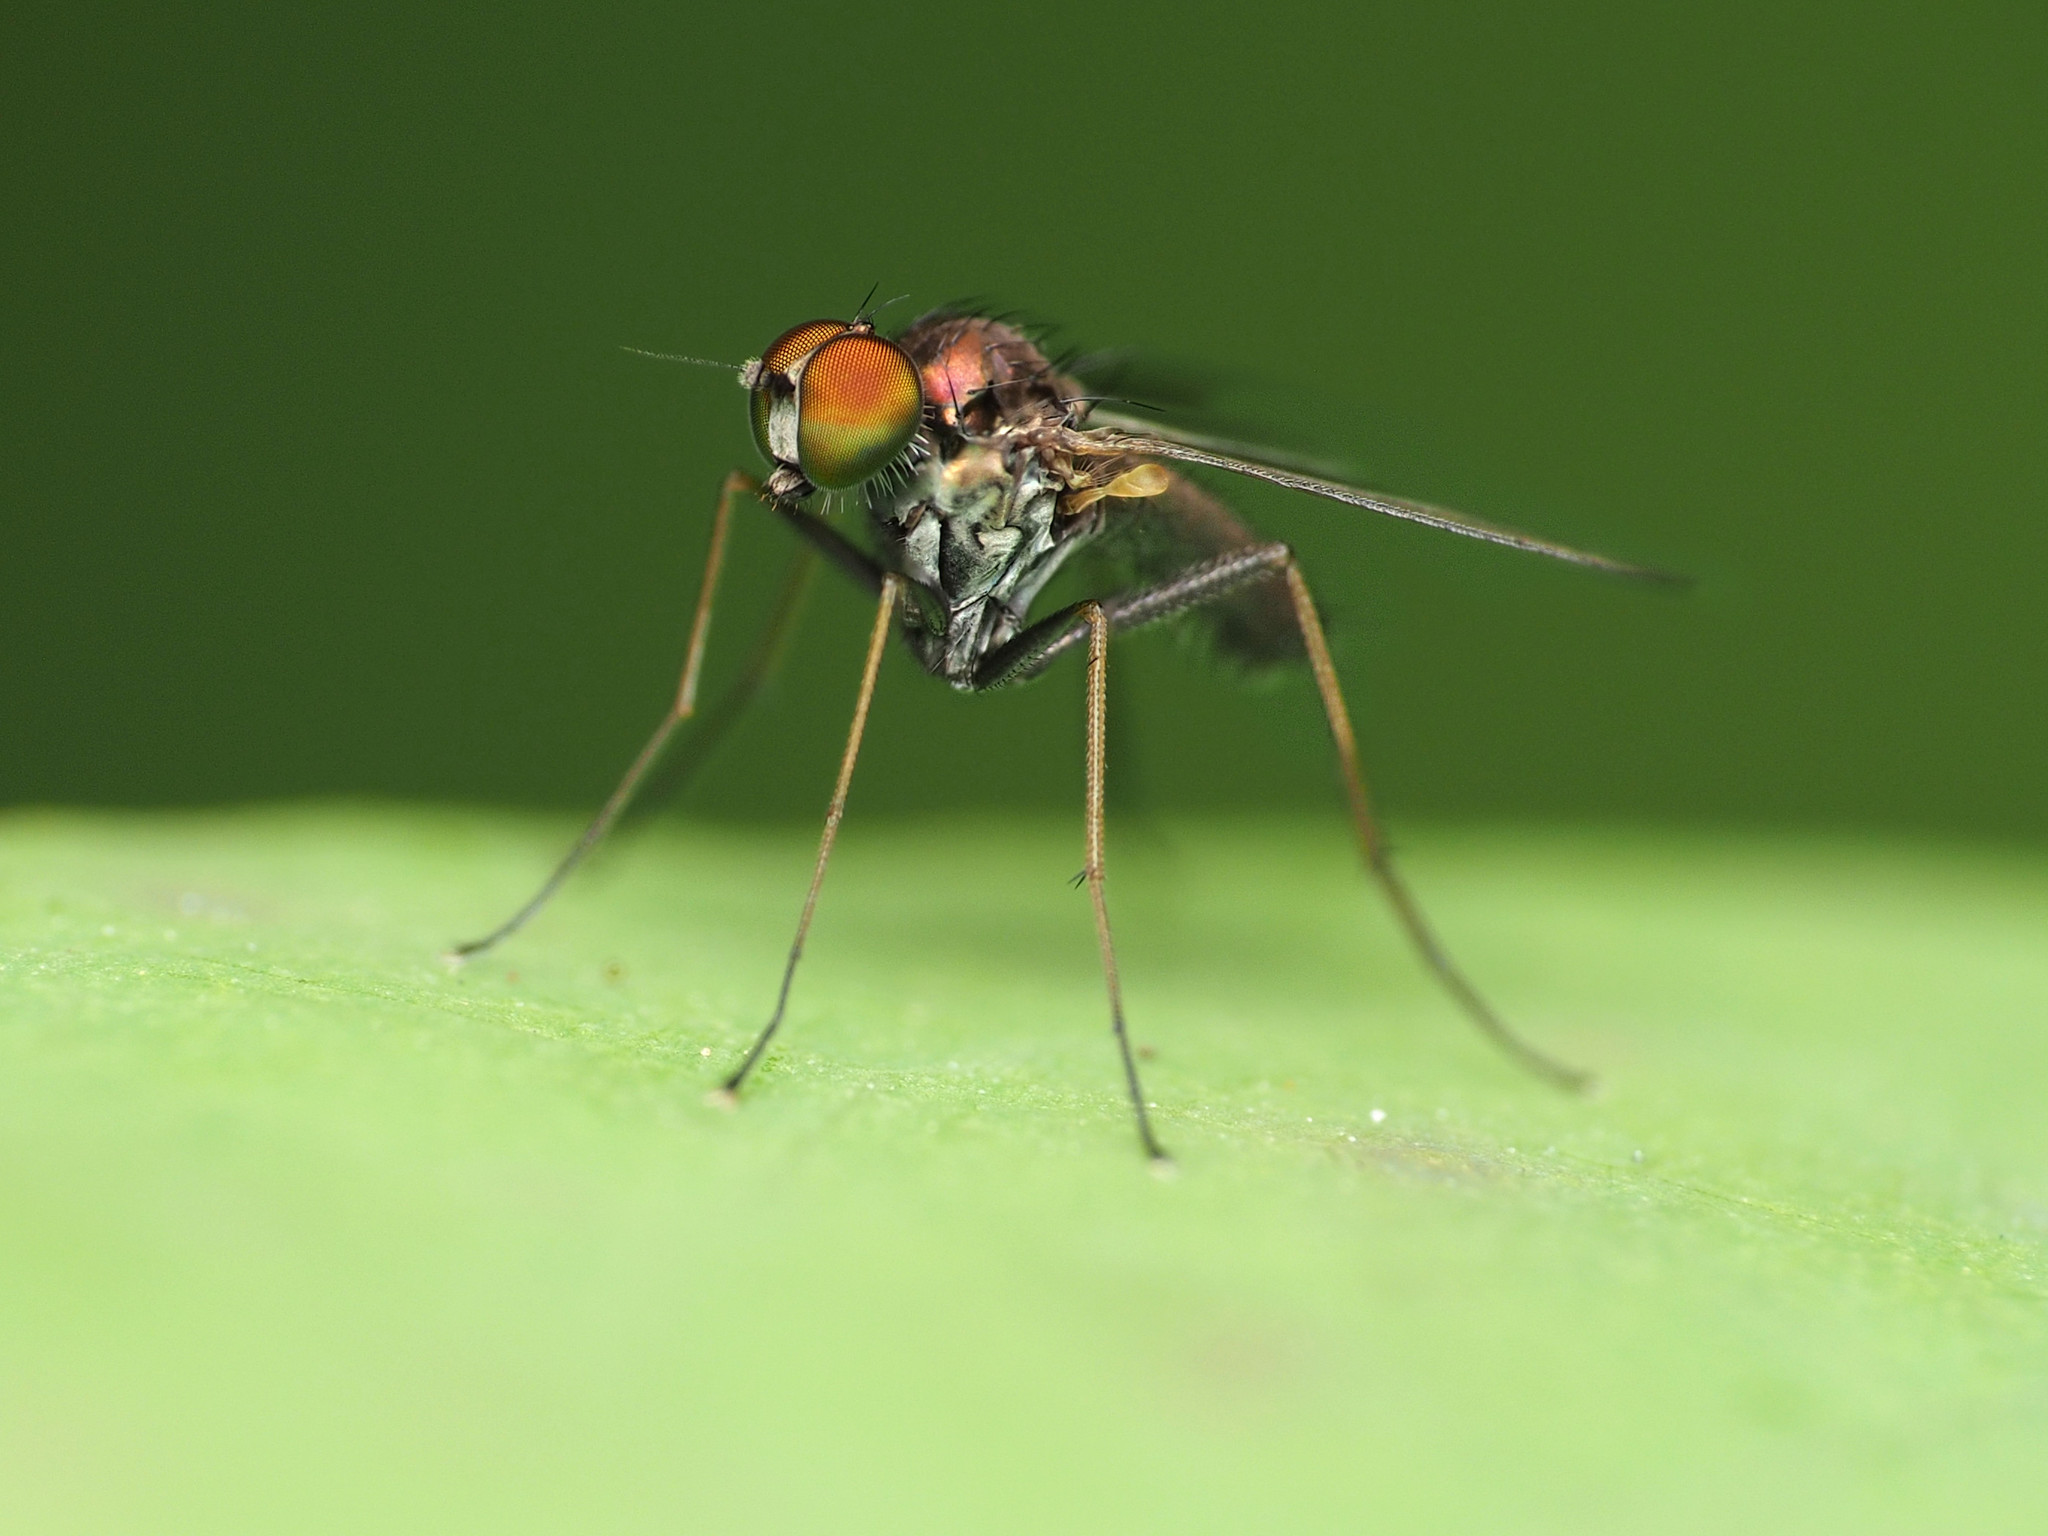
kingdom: Animalia
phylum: Arthropoda
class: Insecta
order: Diptera
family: Dolichopodidae
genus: Chrysotus
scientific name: Chrysotus spectabilis
